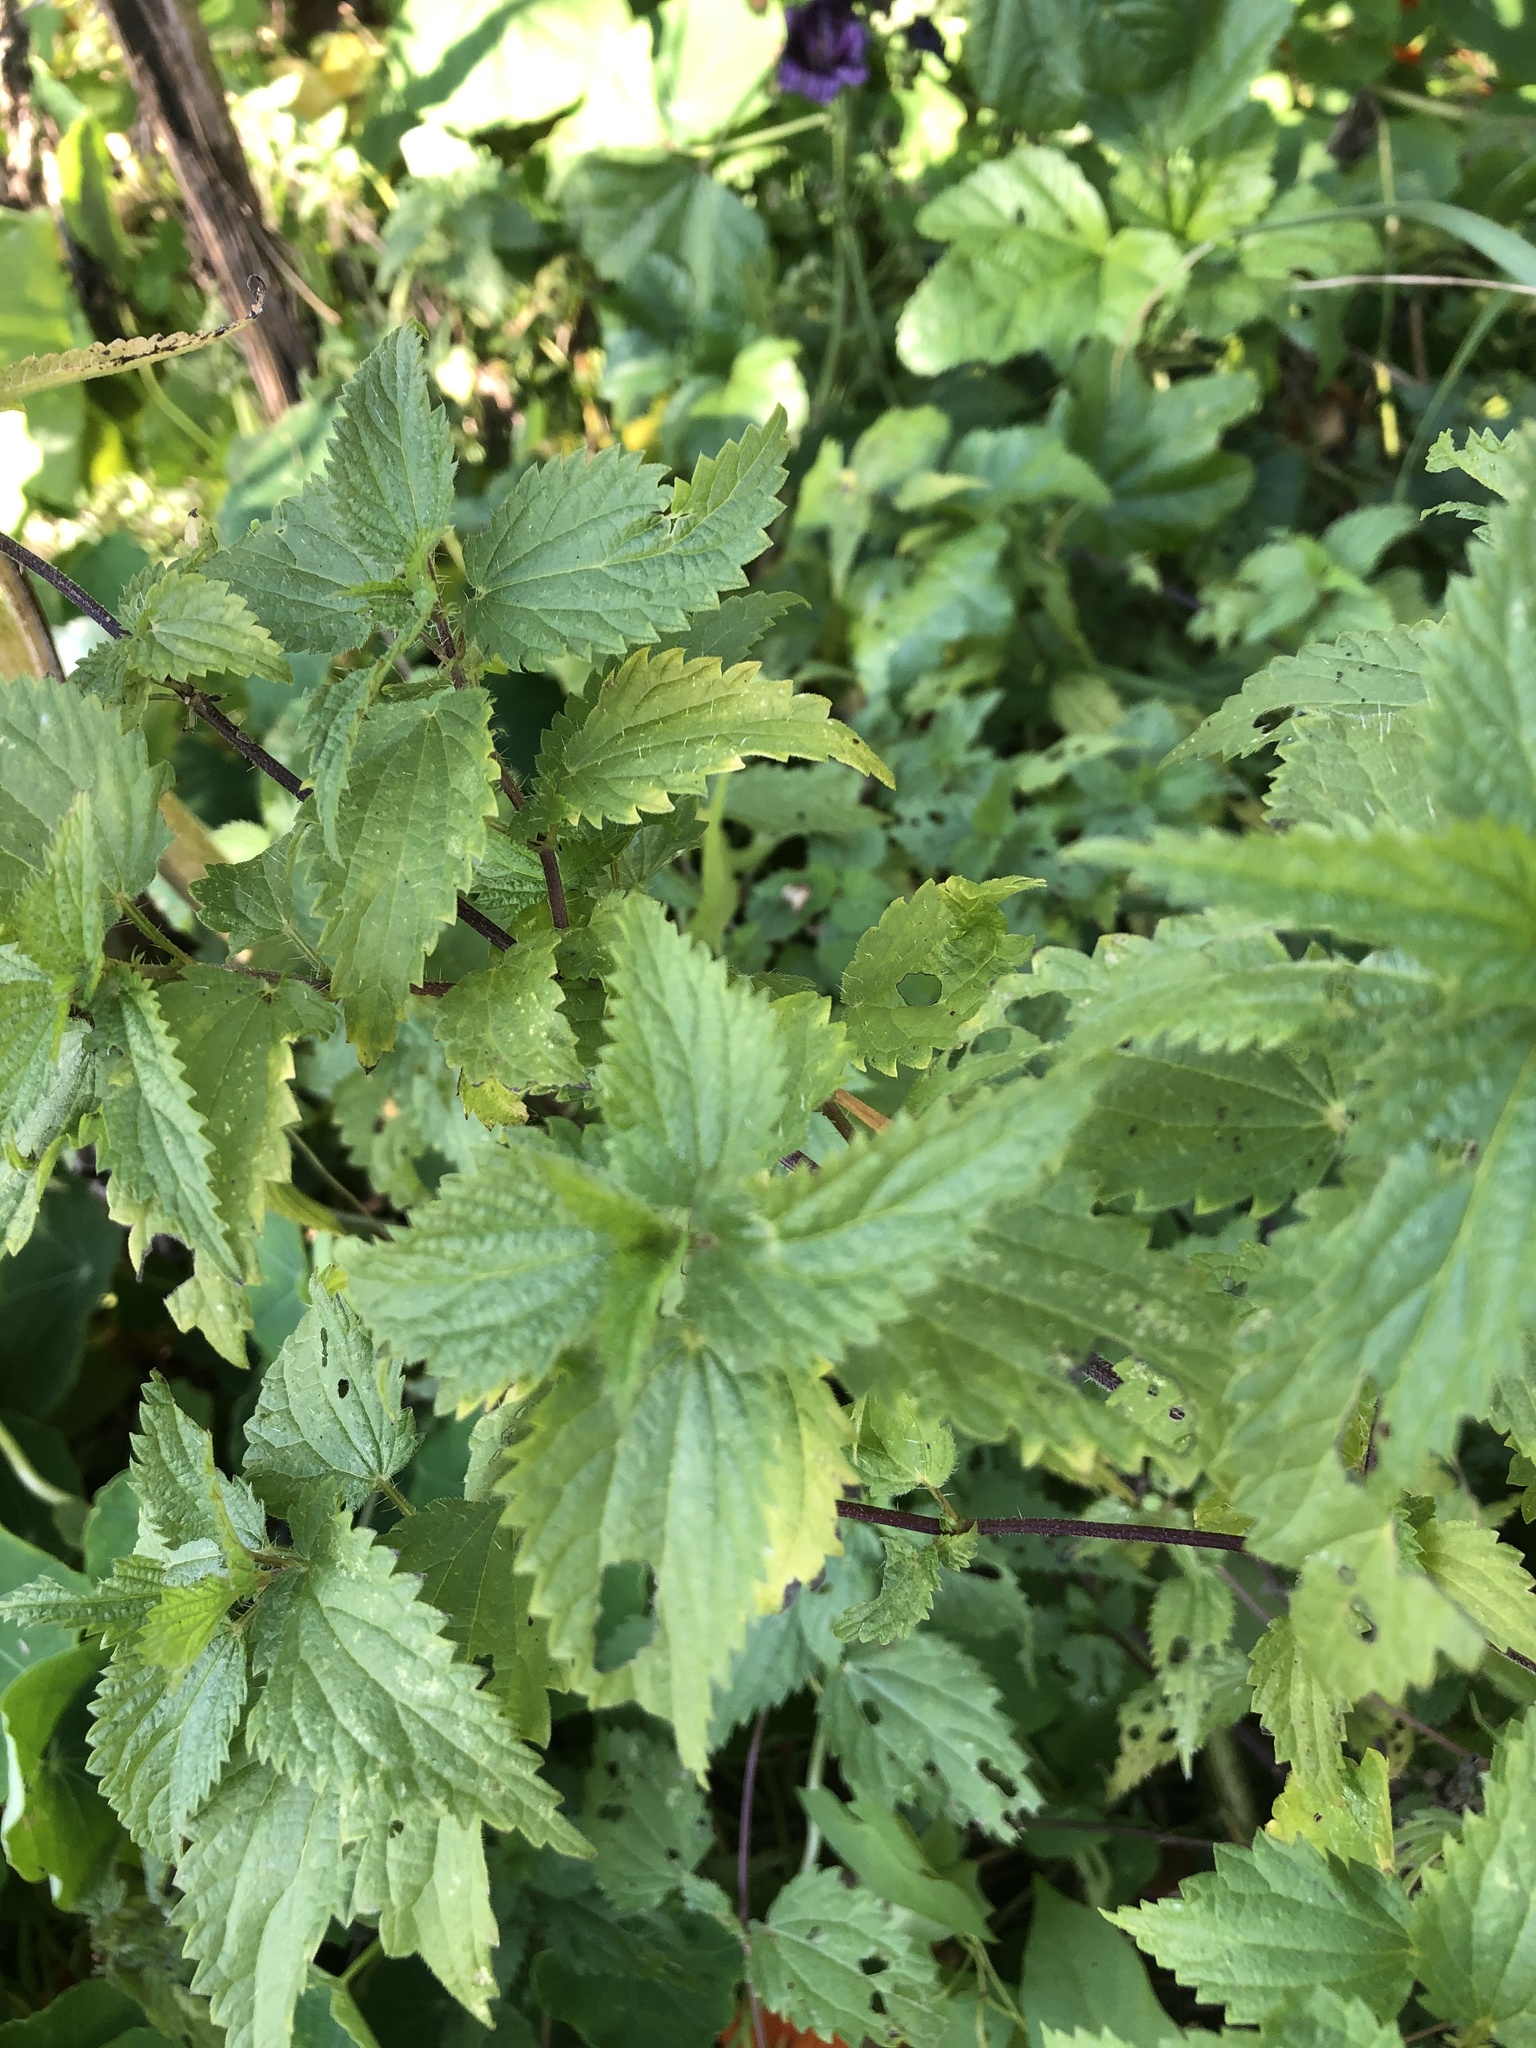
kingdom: Plantae
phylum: Tracheophyta
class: Magnoliopsida
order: Rosales
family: Urticaceae
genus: Urtica
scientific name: Urtica dioica
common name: Common nettle
